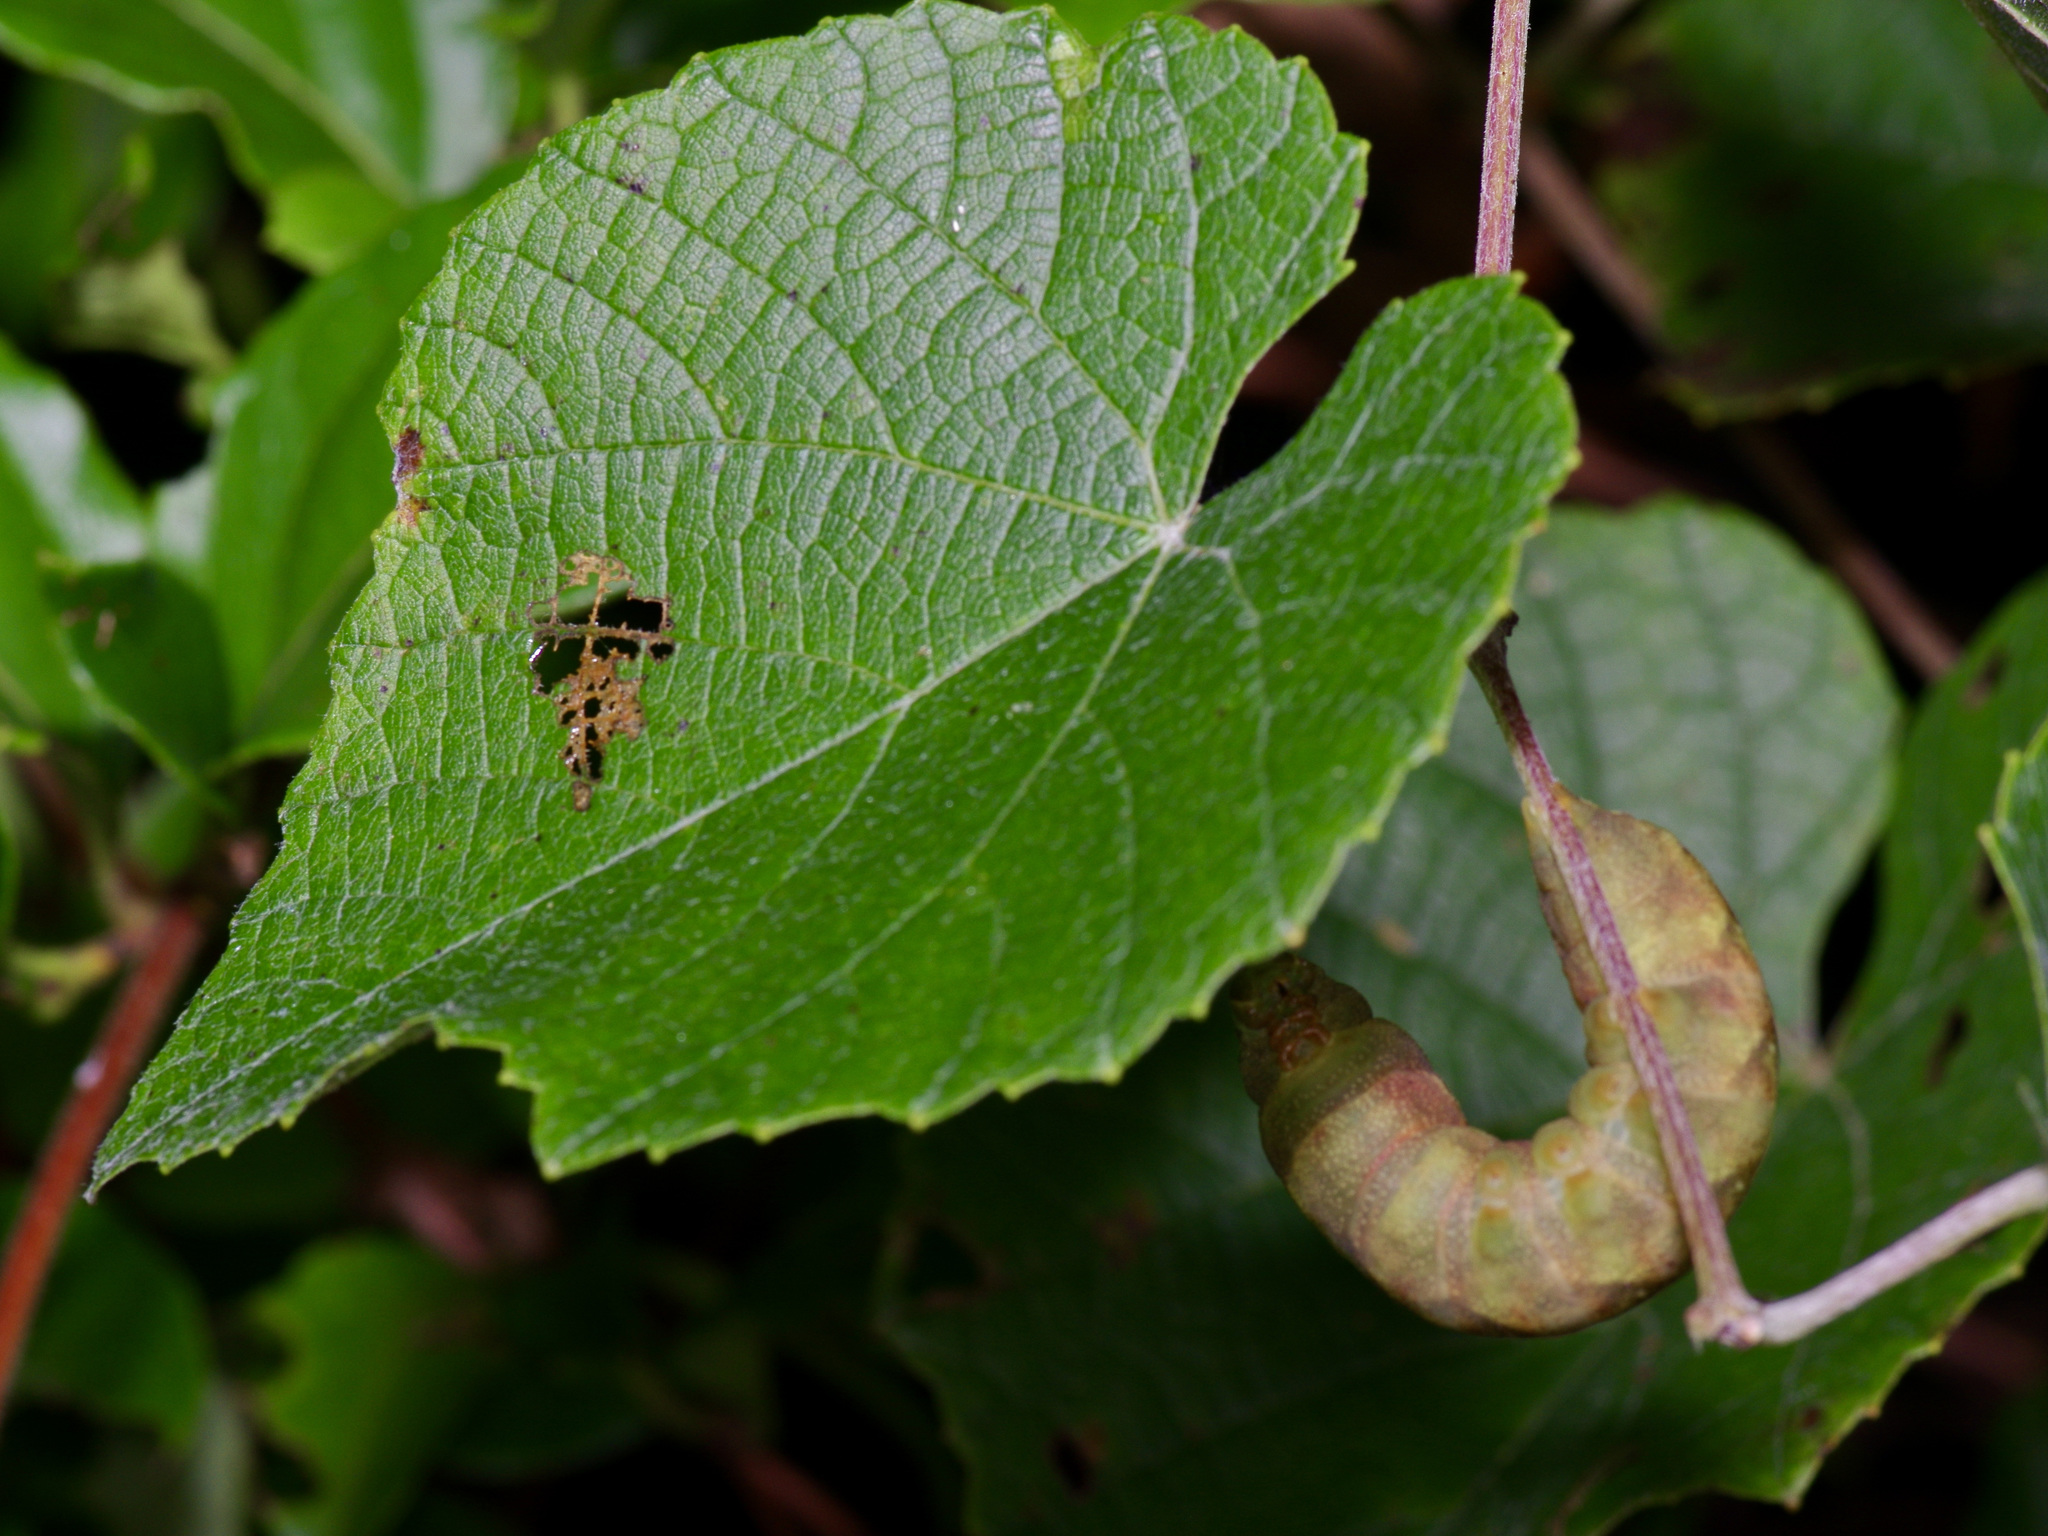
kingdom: Animalia
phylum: Arthropoda
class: Insecta
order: Lepidoptera
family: Sphingidae
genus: Amphion
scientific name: Amphion floridensis
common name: Nessus sphinx
